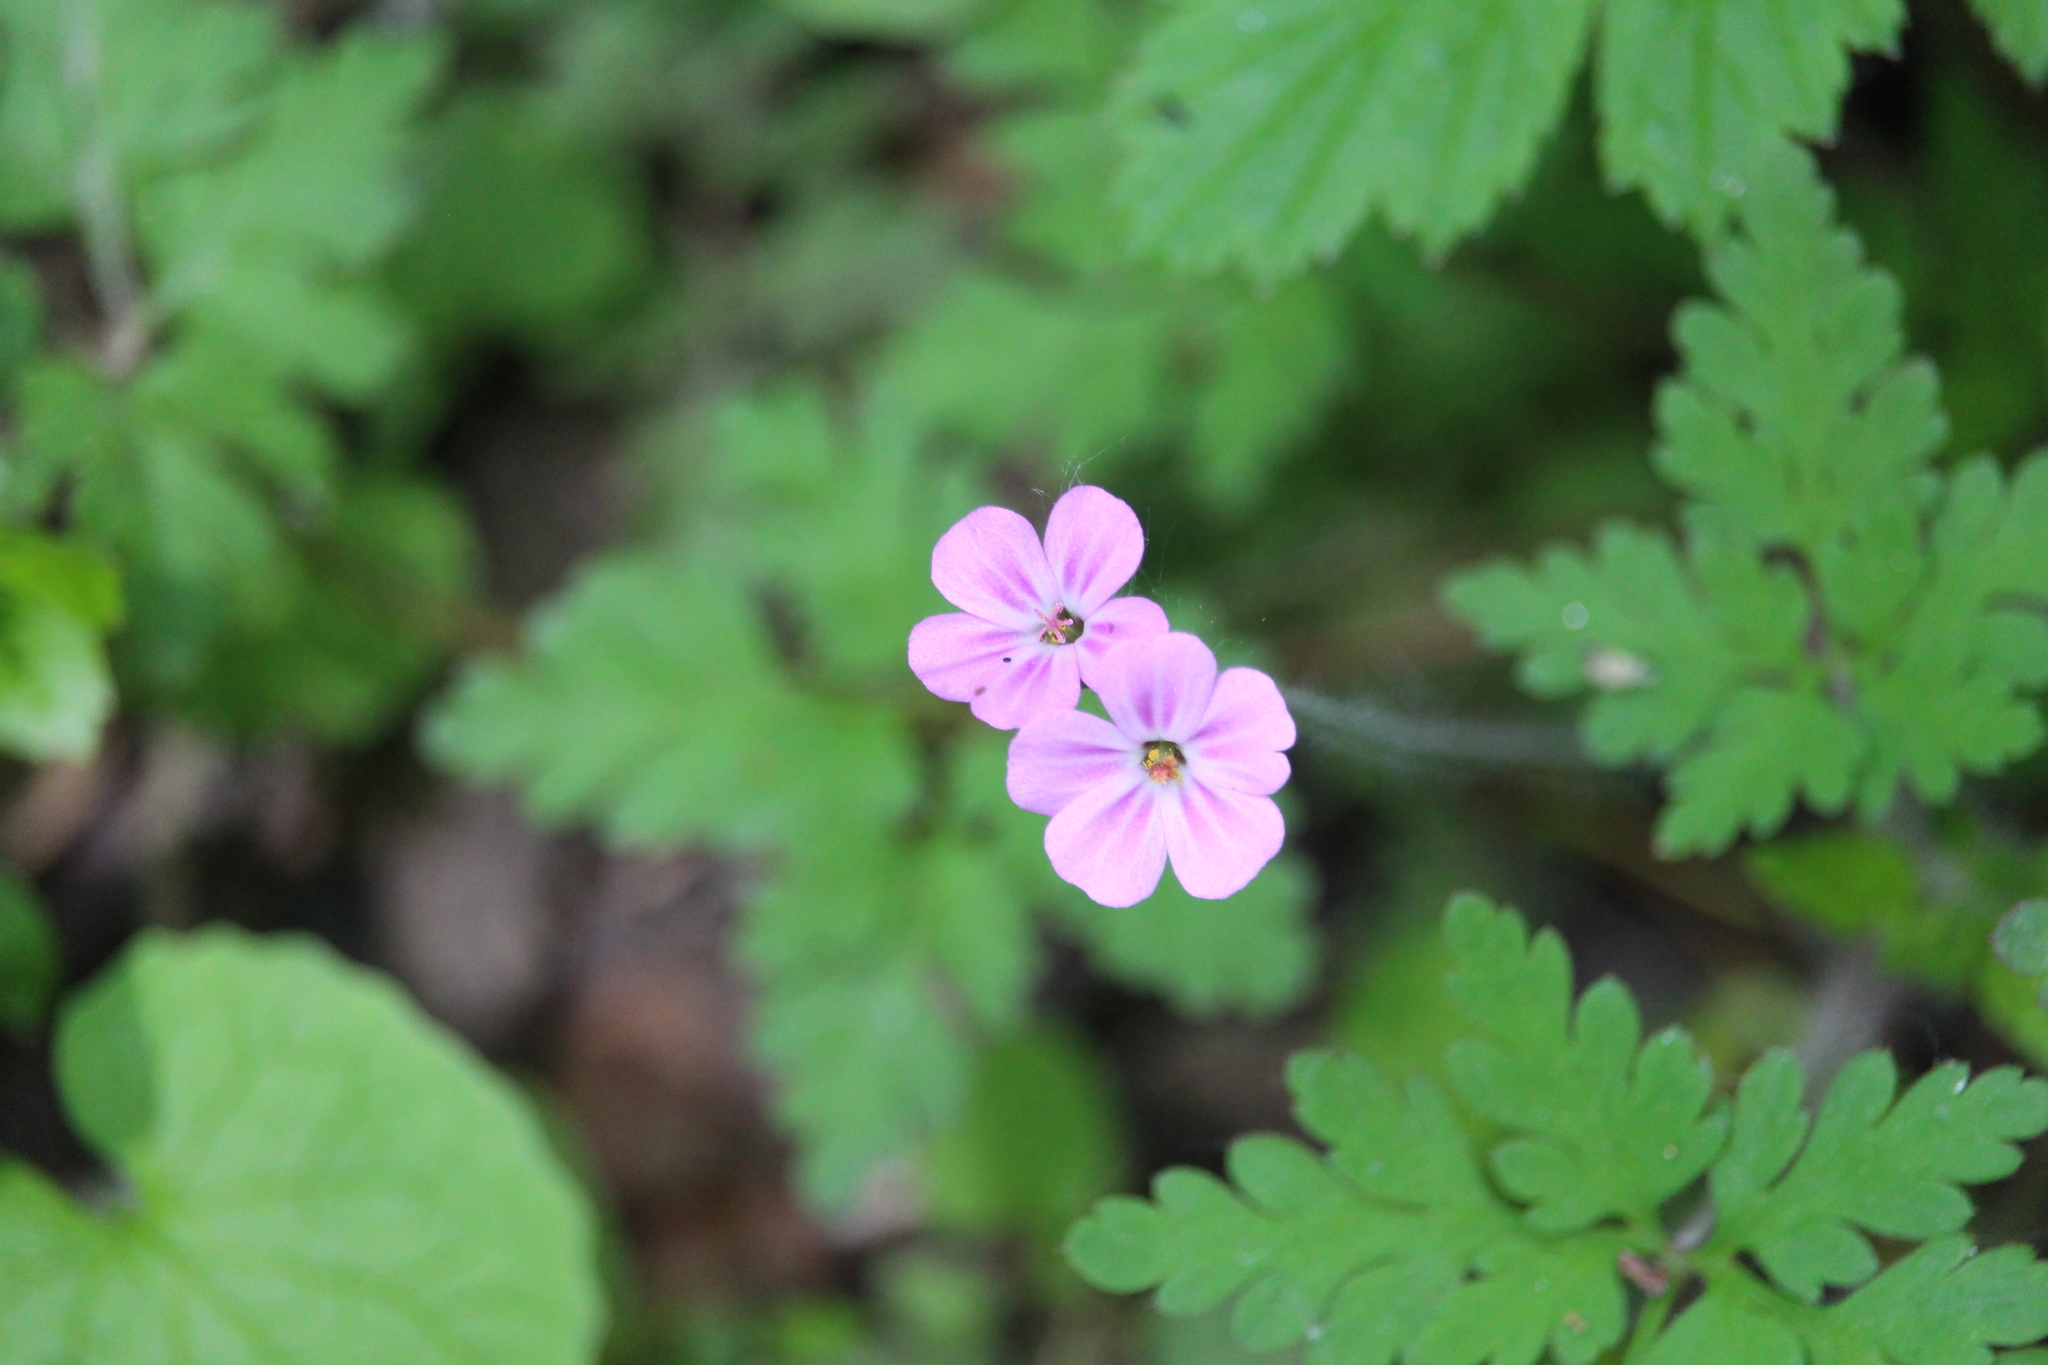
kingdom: Plantae
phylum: Tracheophyta
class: Magnoliopsida
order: Geraniales
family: Geraniaceae
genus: Geranium
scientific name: Geranium robertianum
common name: Herb-robert
